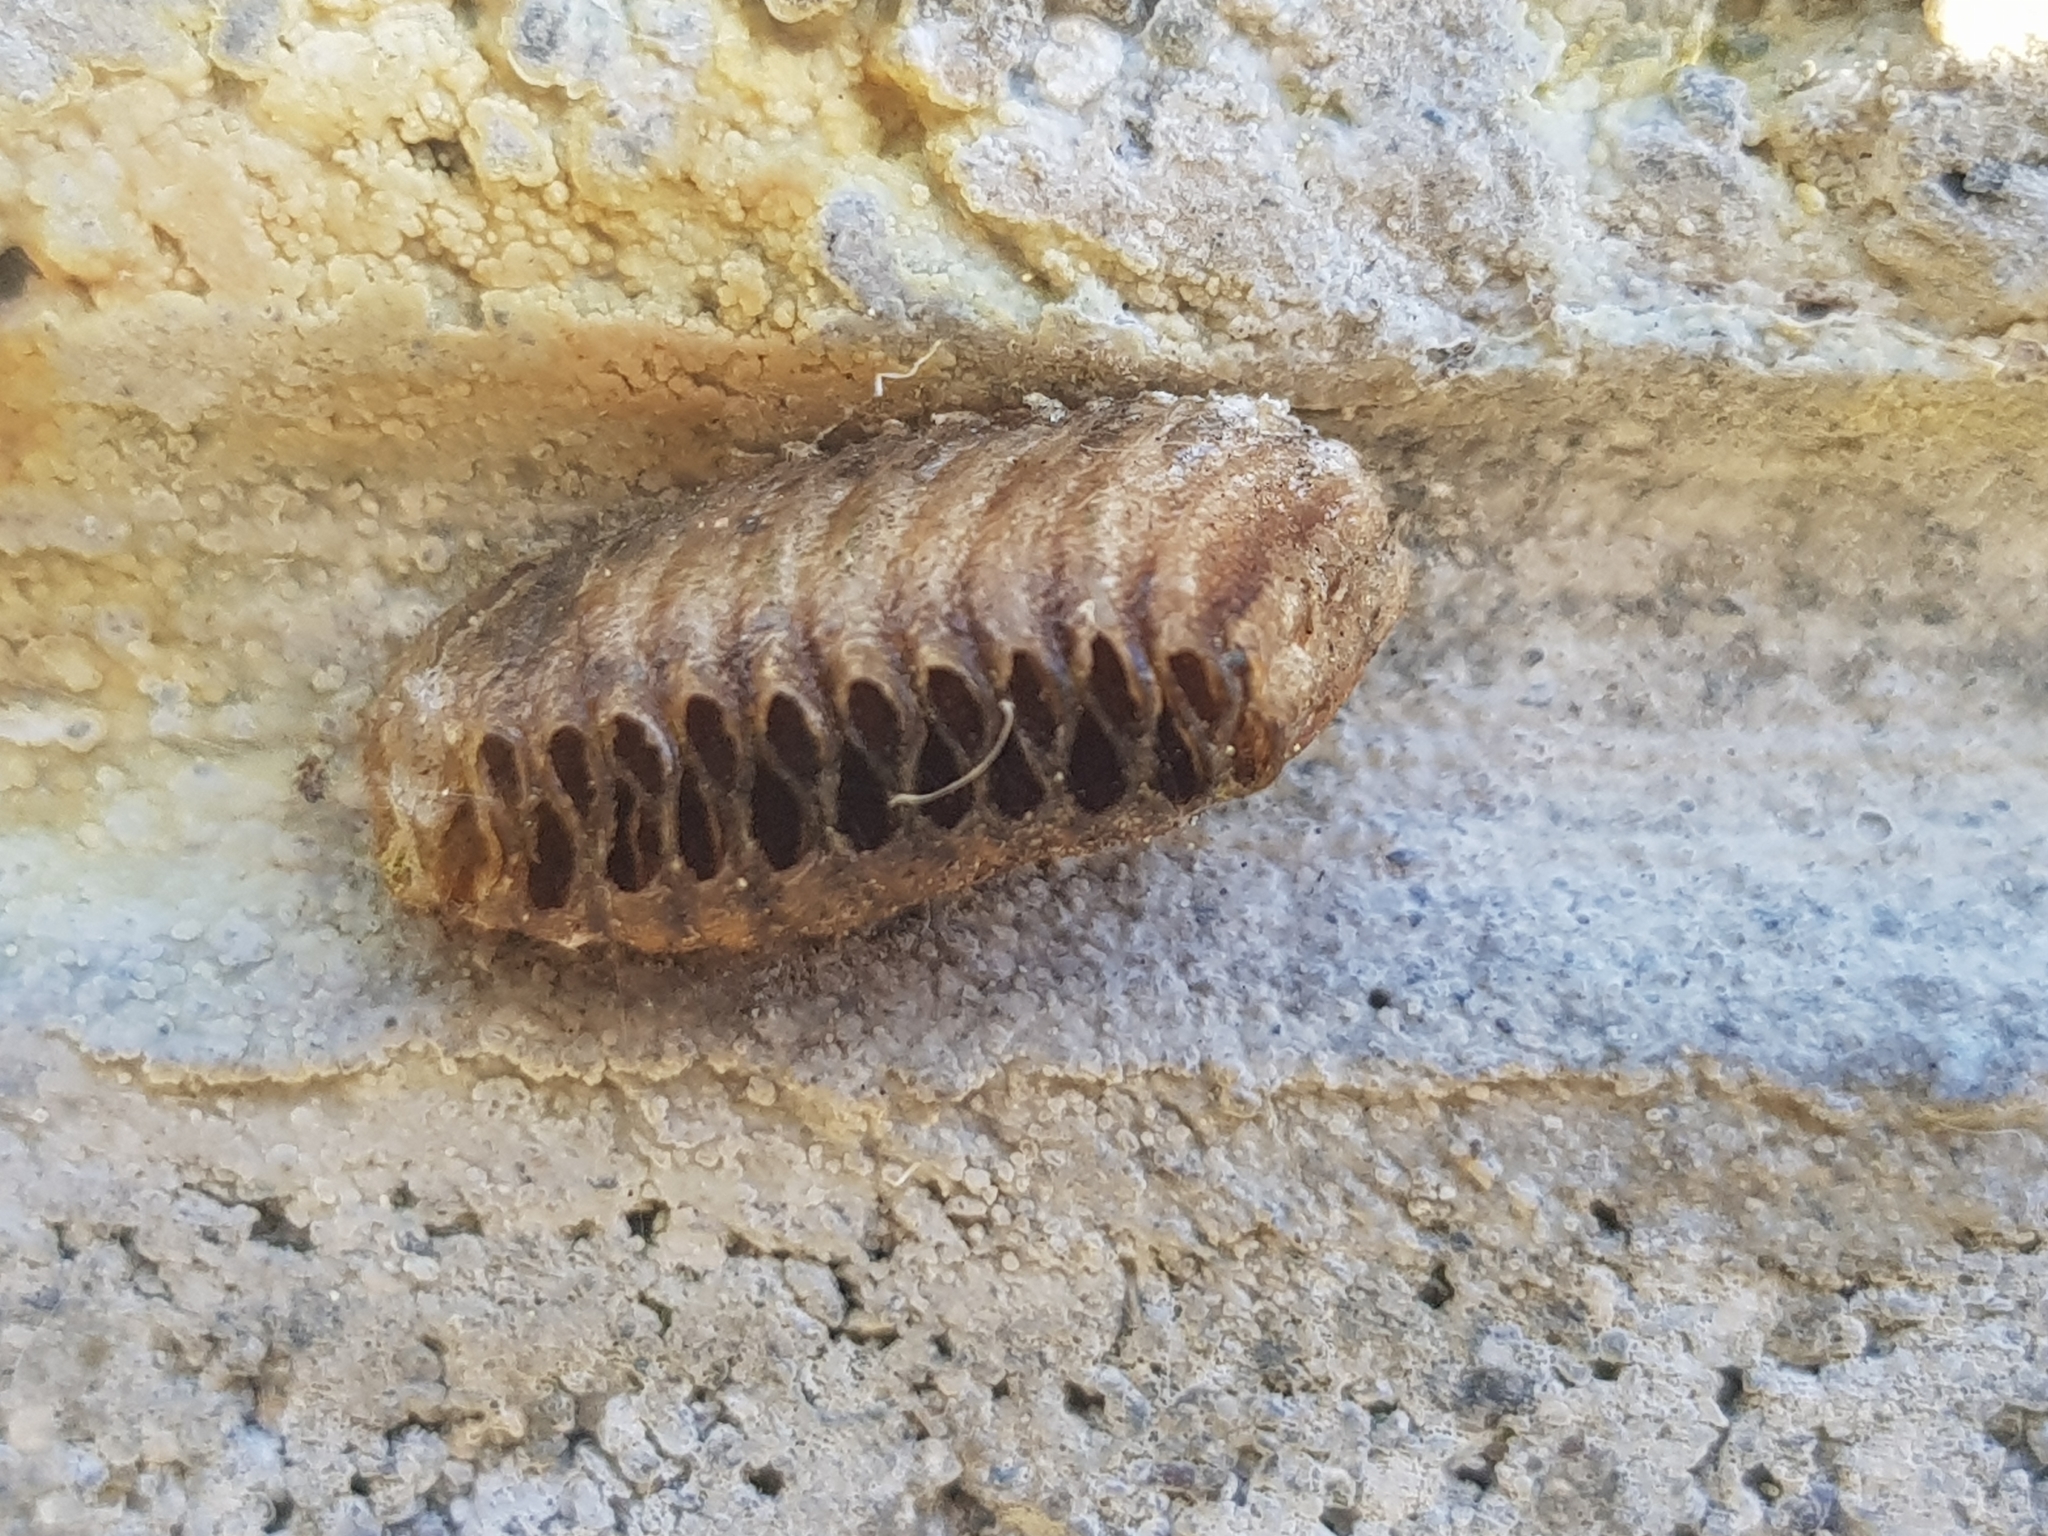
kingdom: Animalia
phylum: Arthropoda
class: Insecta
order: Mantodea
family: Mantidae
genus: Orthodera
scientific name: Orthodera novaezealandiae
